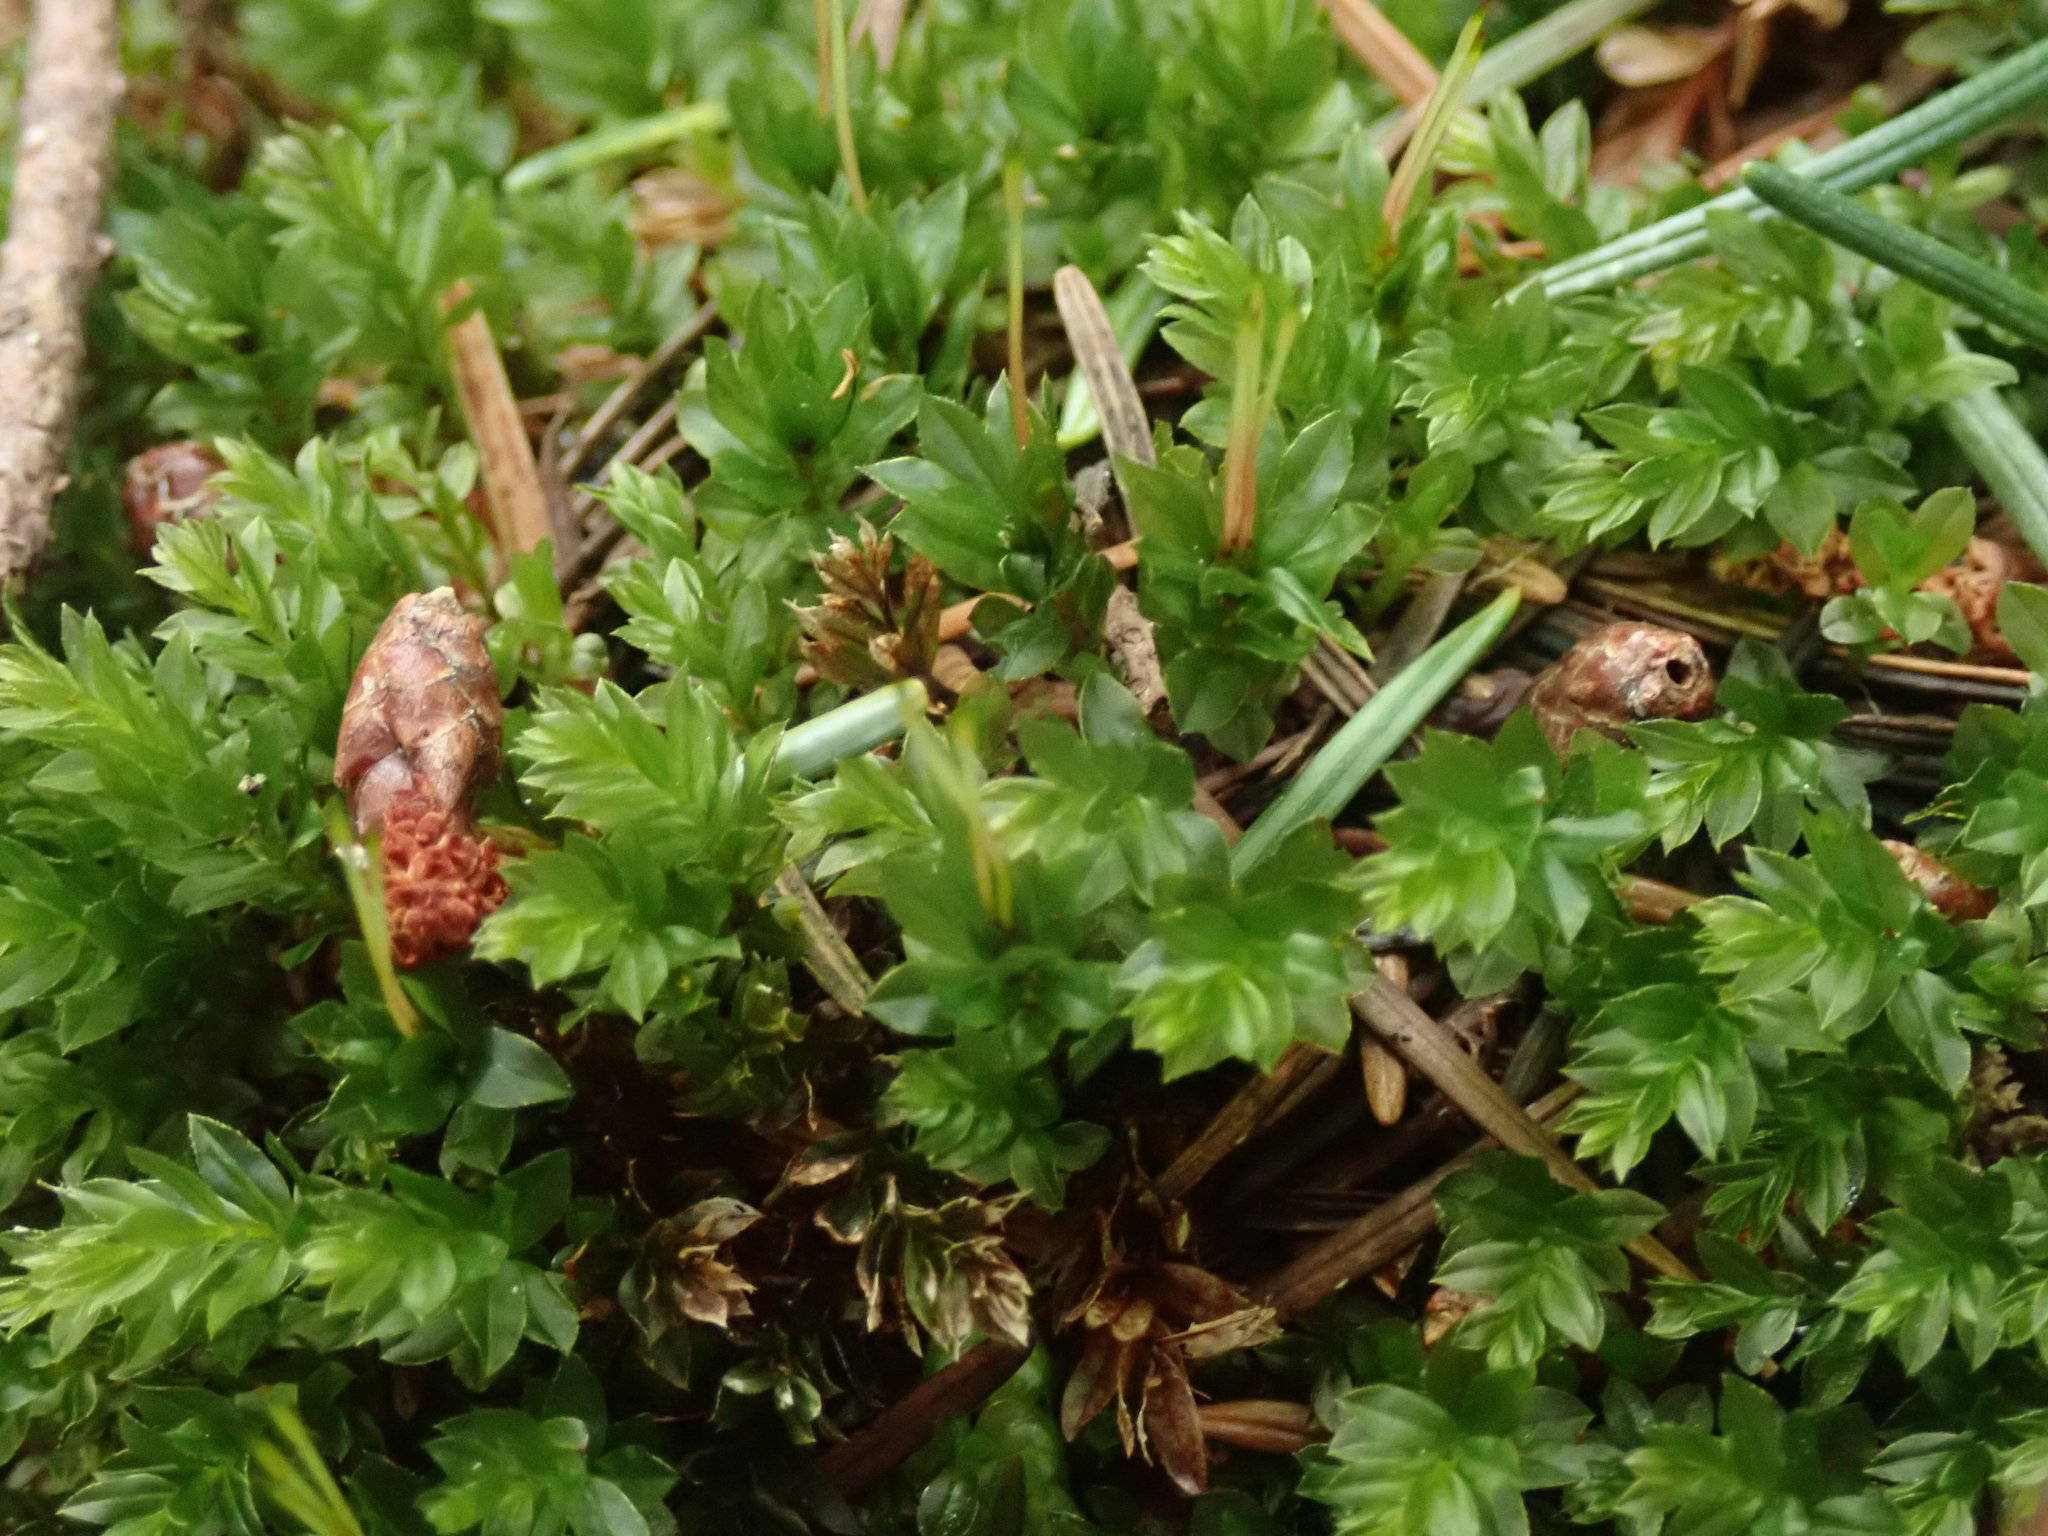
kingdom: Plantae
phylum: Bryophyta
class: Bryopsida
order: Bryales
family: Mniaceae
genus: Mnium
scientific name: Mnium spinulosum
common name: Red-mouthed leafy moss
